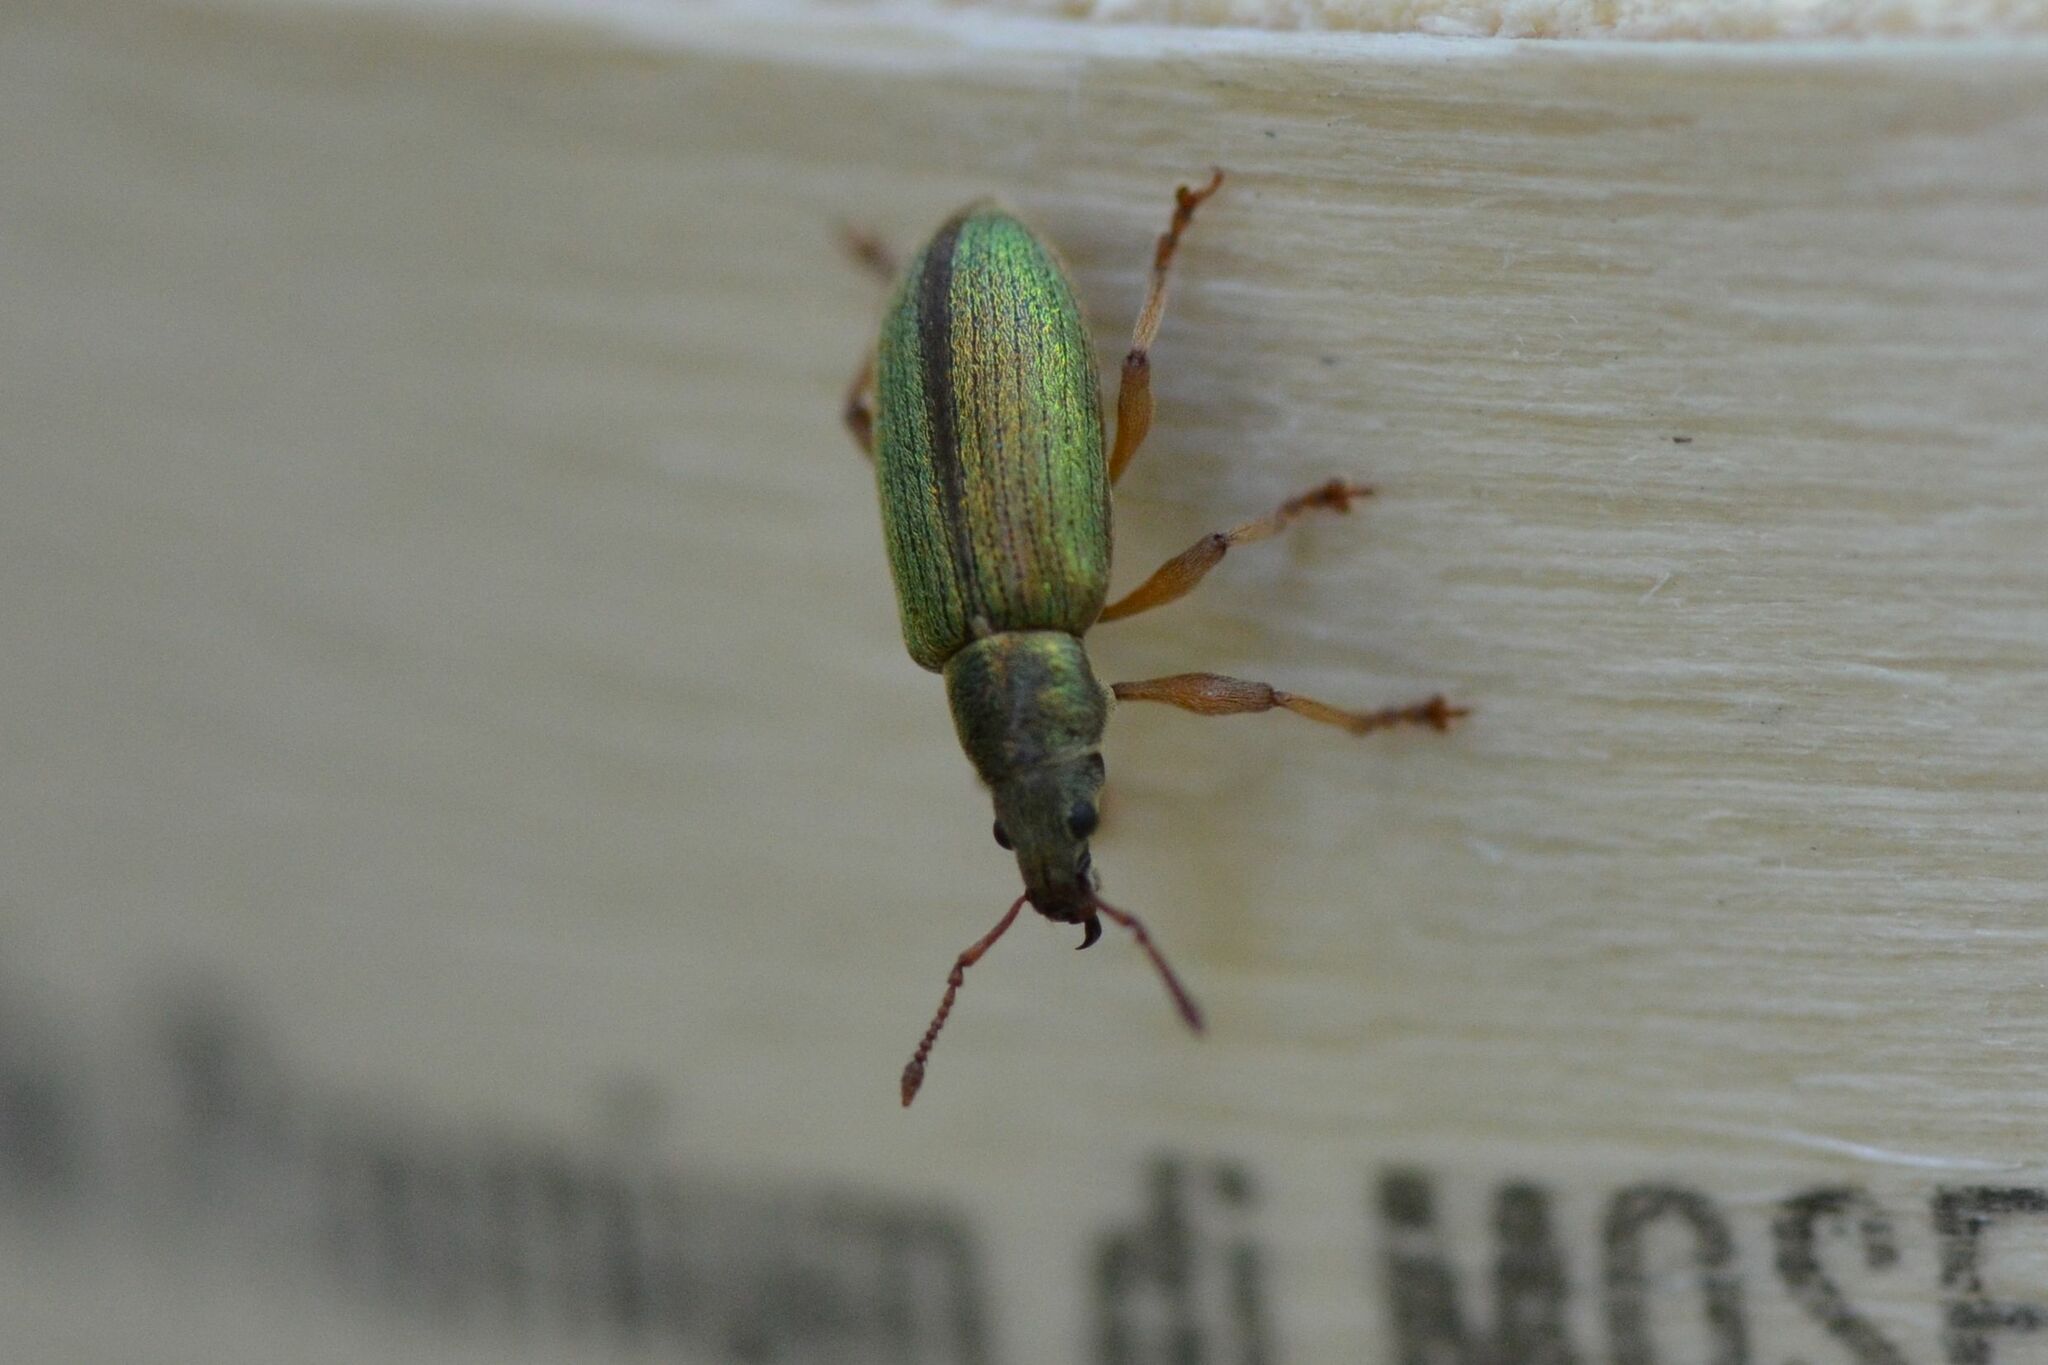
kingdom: Animalia
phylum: Arthropoda
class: Insecta
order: Coleoptera
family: Curculionidae
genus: Polydrusus
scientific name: Polydrusus viridinitens
